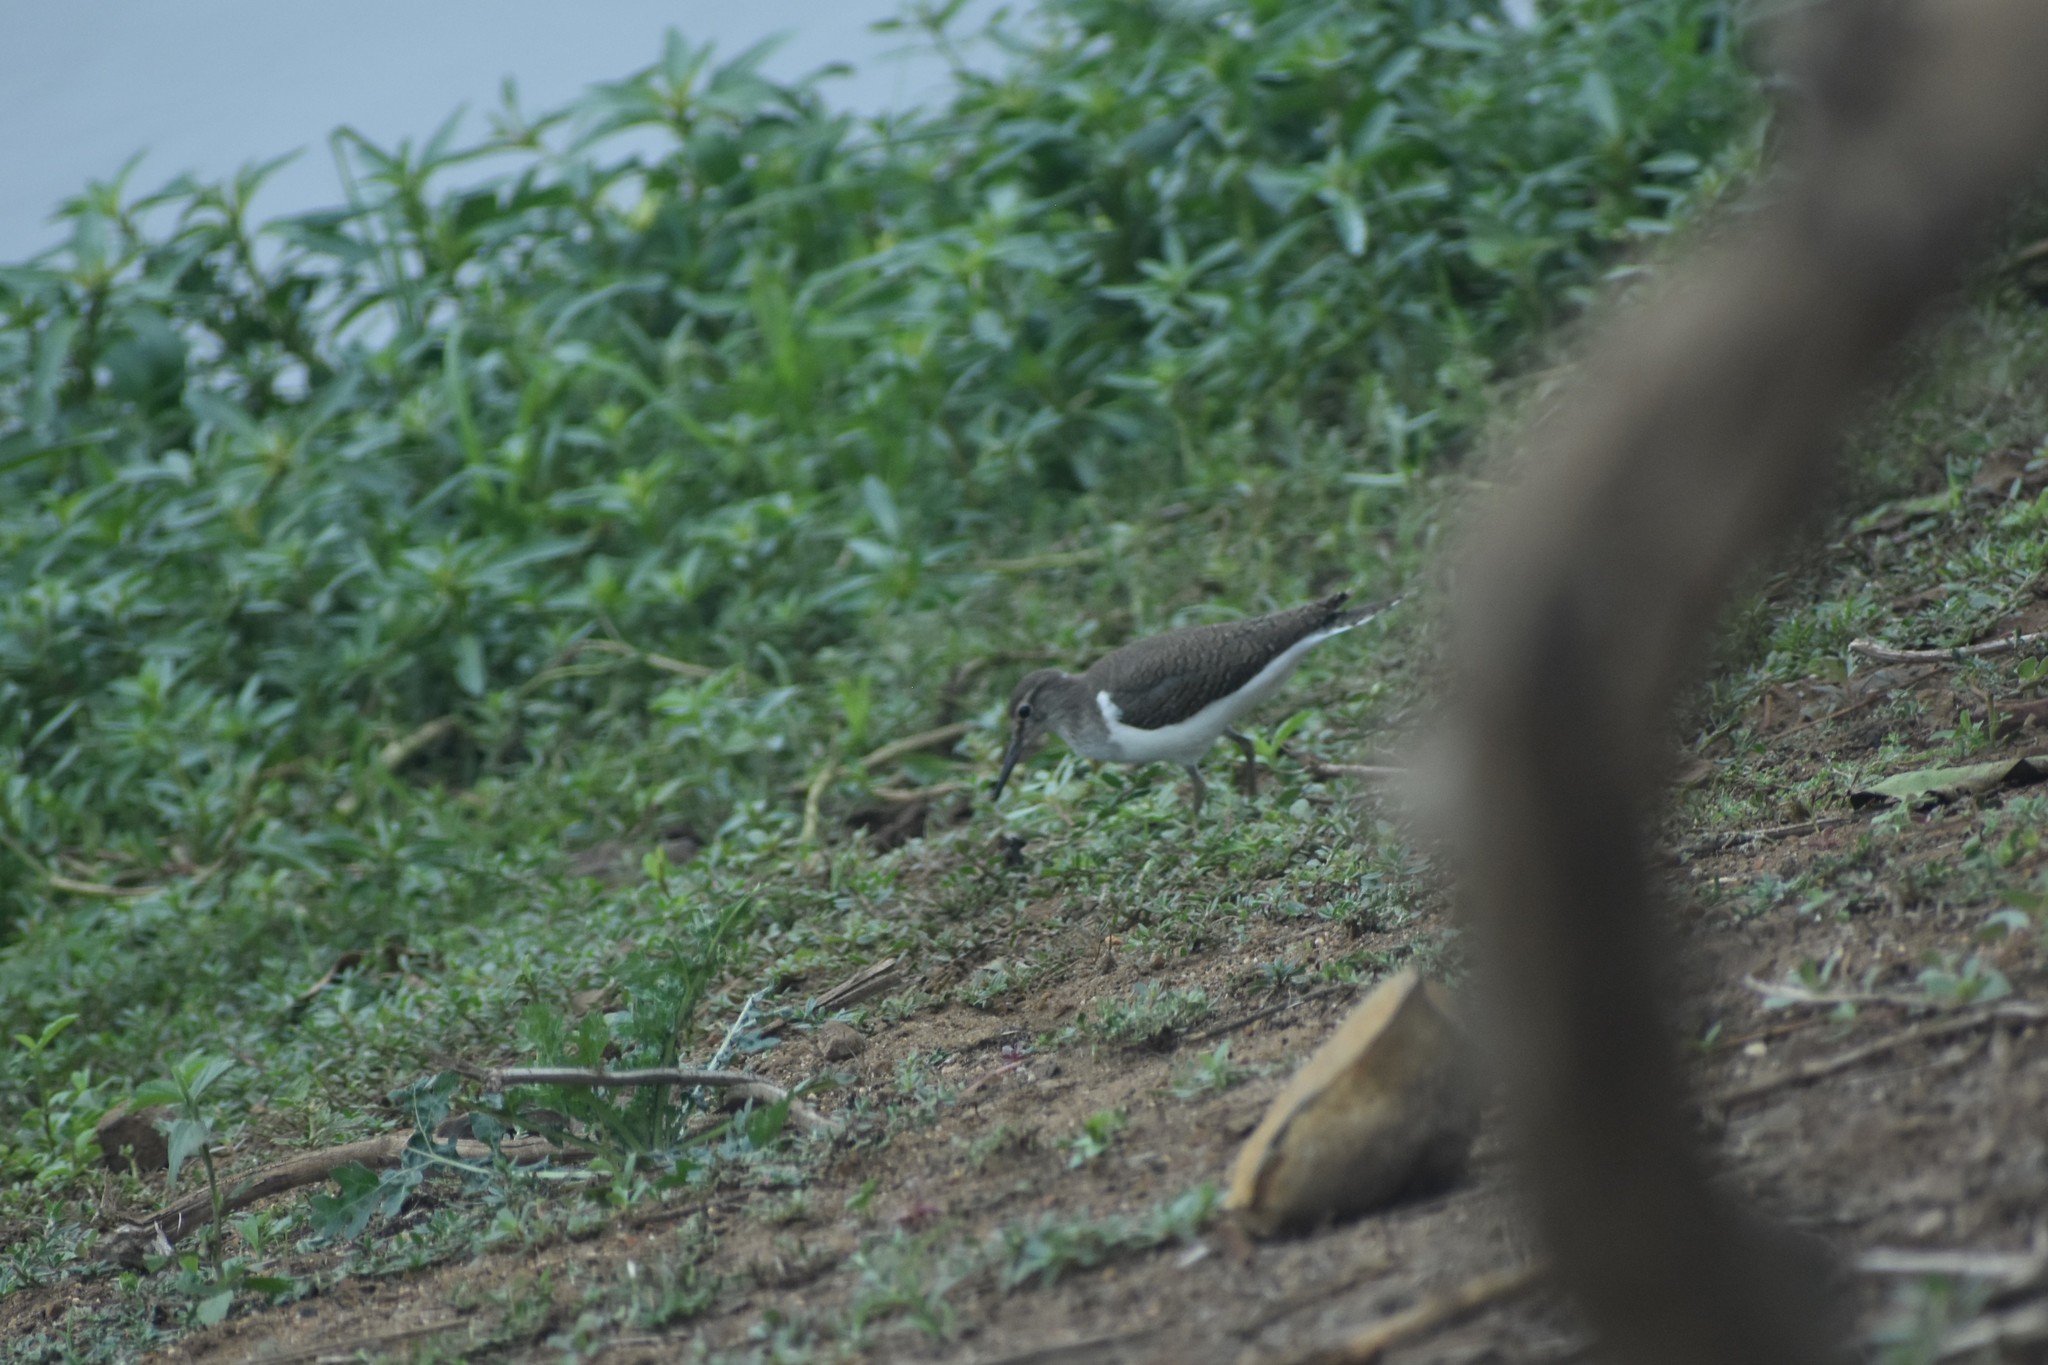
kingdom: Animalia
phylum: Chordata
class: Aves
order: Charadriiformes
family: Scolopacidae
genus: Actitis
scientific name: Actitis hypoleucos
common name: Common sandpiper
